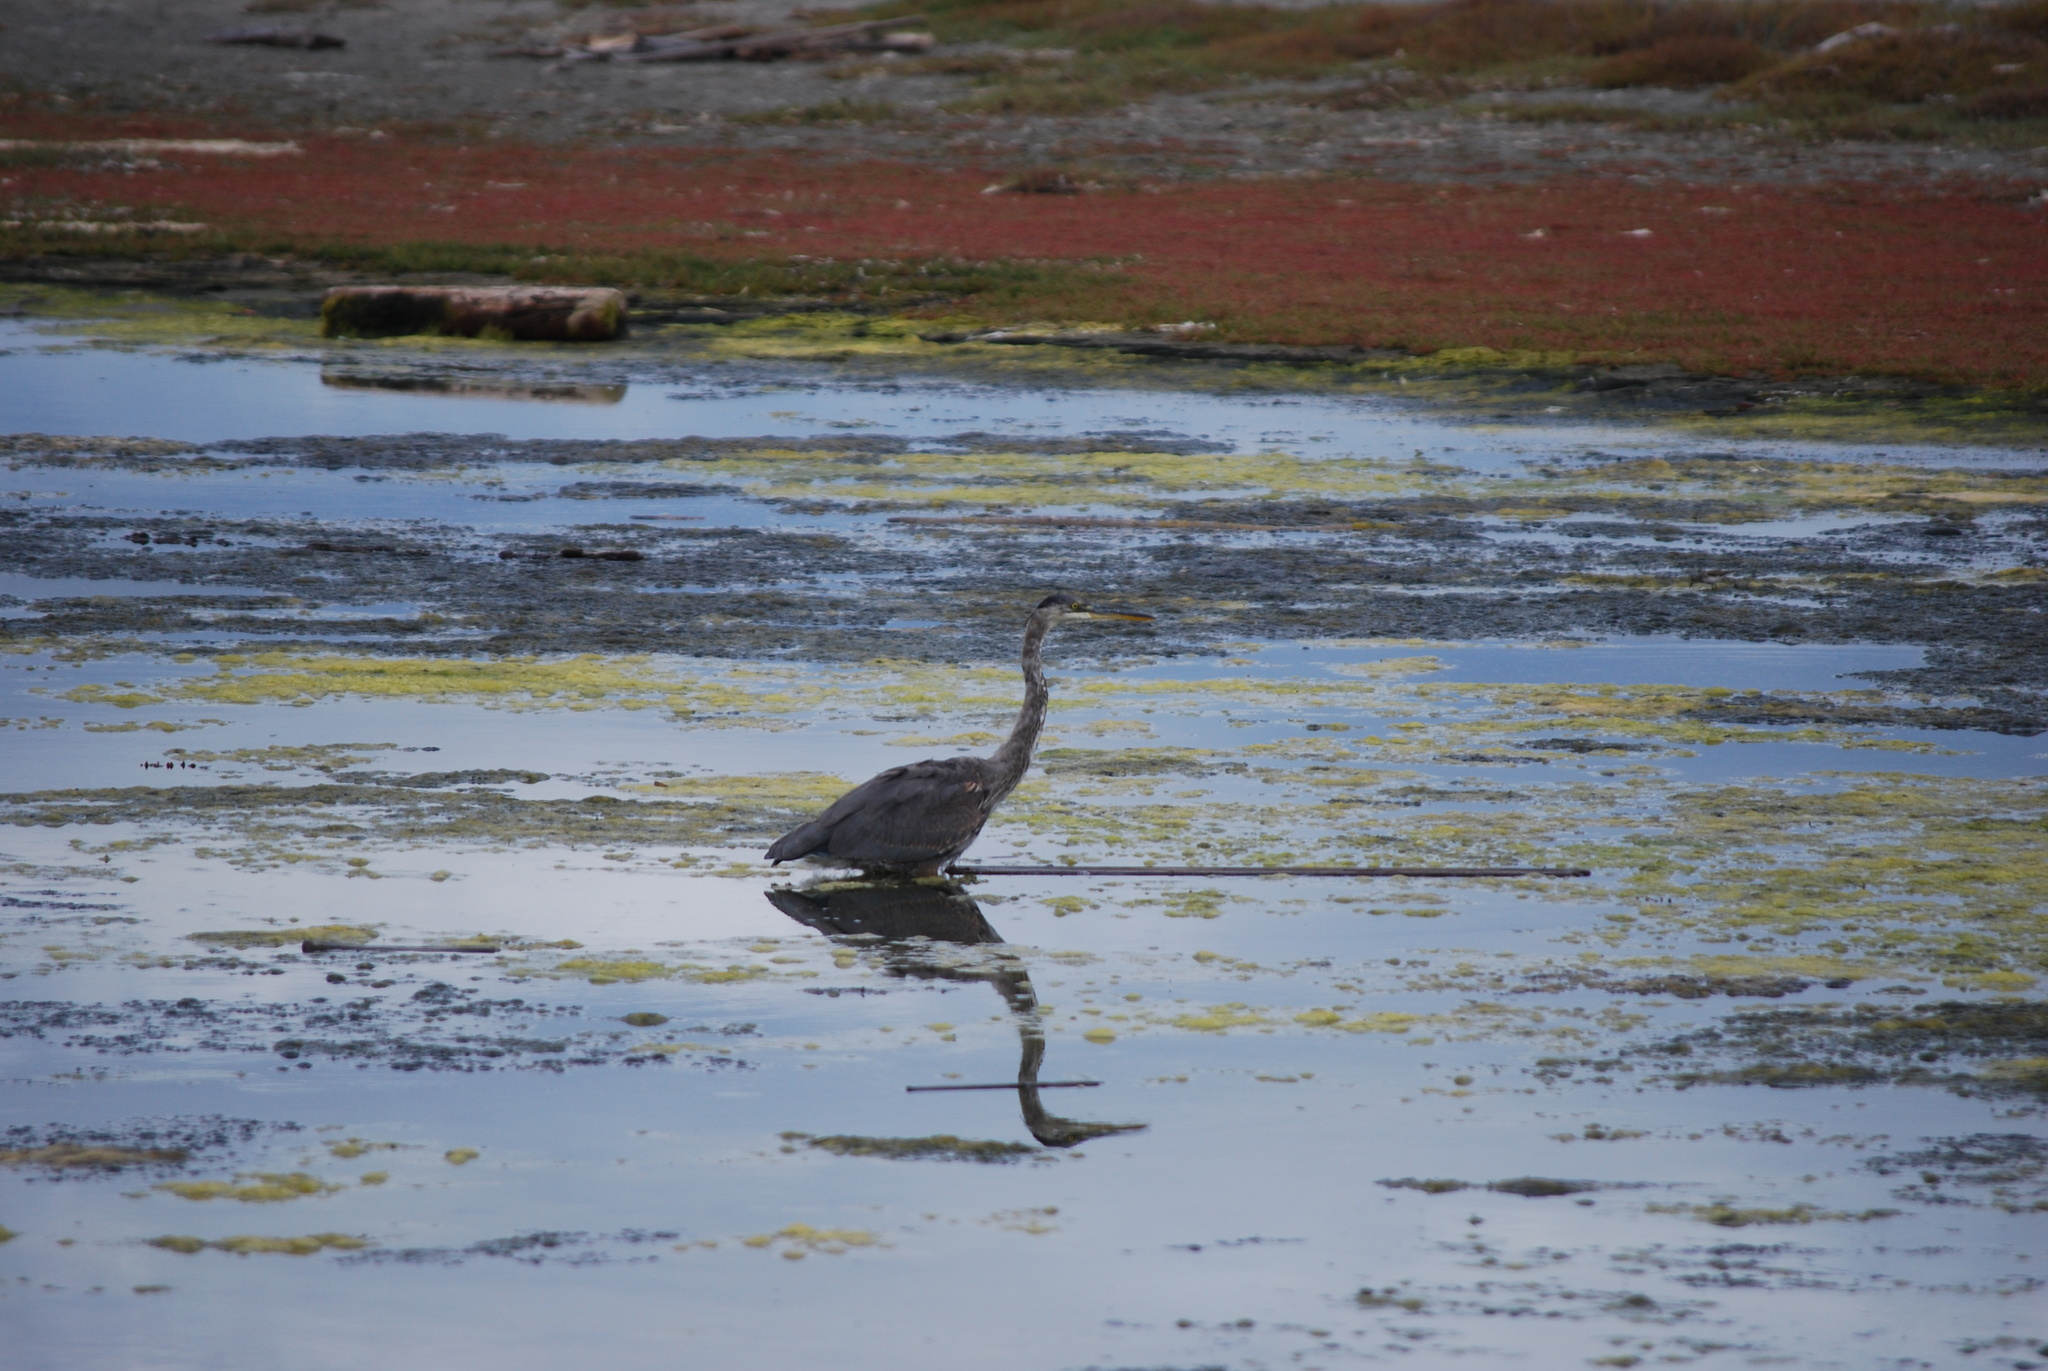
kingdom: Animalia
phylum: Chordata
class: Aves
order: Pelecaniformes
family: Ardeidae
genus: Ardea
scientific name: Ardea herodias
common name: Great blue heron
